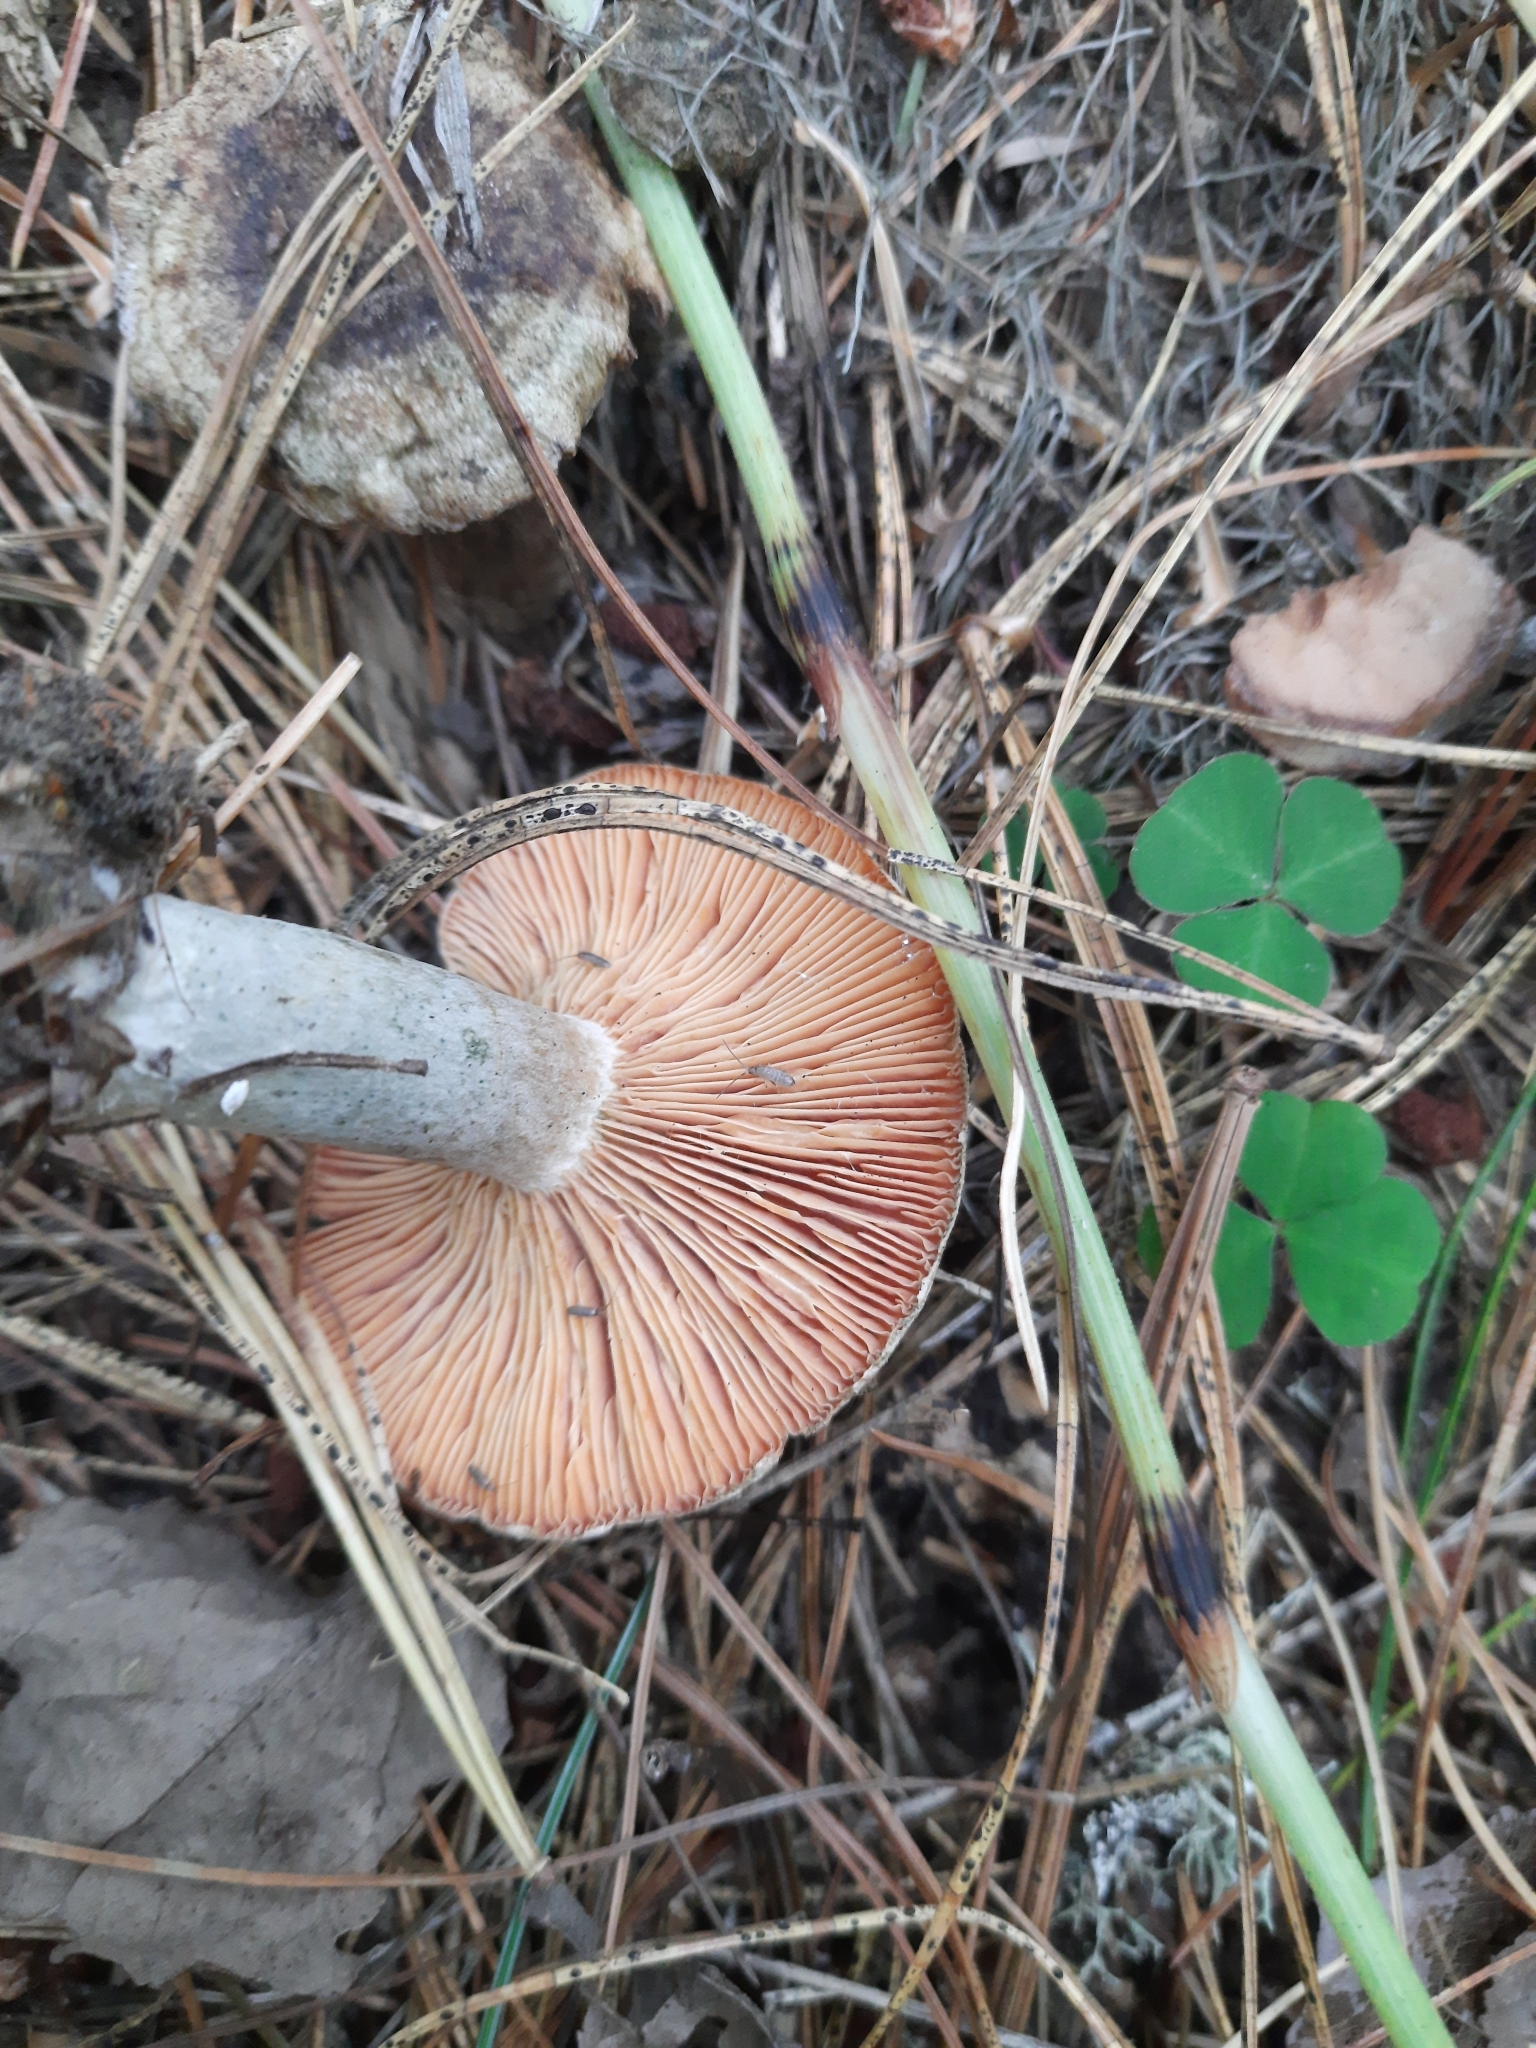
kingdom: Fungi
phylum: Basidiomycota
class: Agaricomycetes
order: Russulales
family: Russulaceae
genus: Lactarius
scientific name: Lactarius deterrimus
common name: False saffron milkcap
